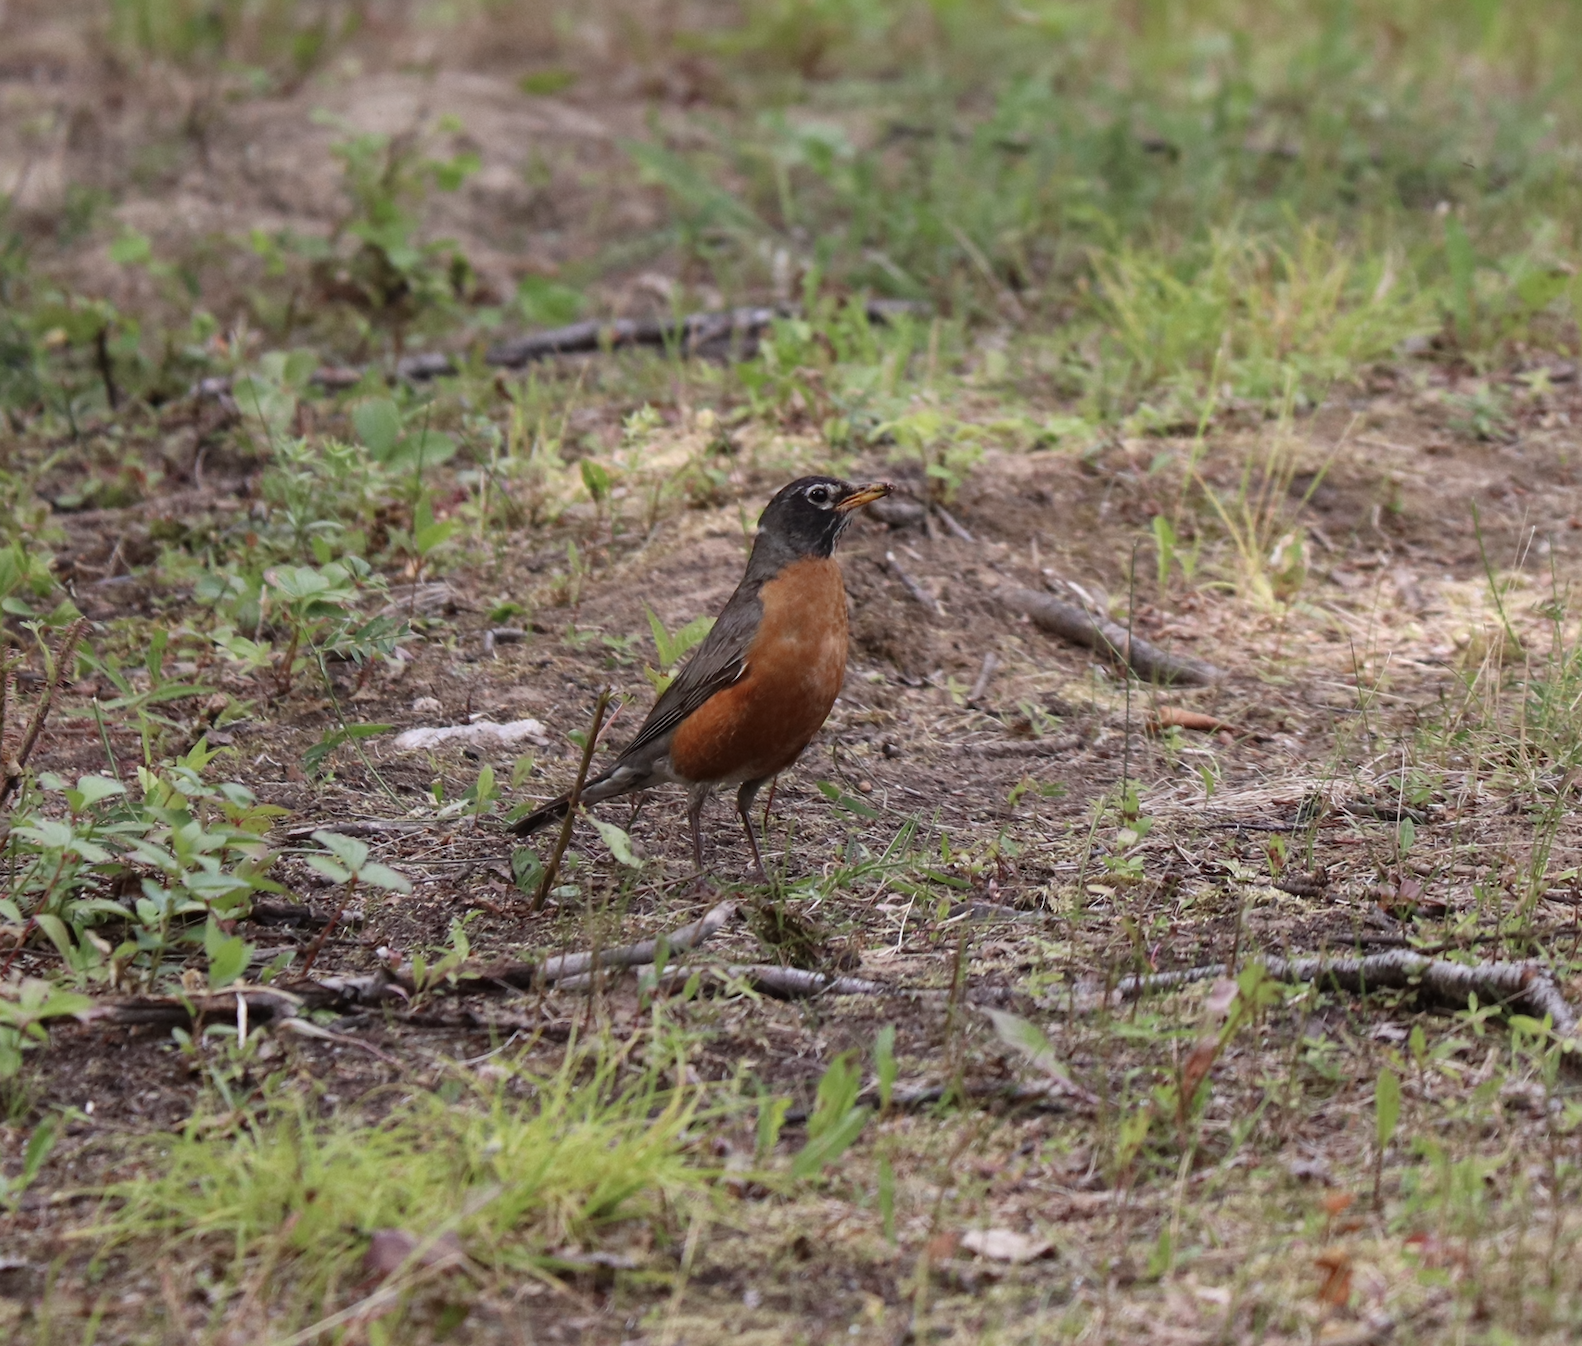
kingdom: Animalia
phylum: Chordata
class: Aves
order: Passeriformes
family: Turdidae
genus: Turdus
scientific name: Turdus migratorius
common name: American robin
